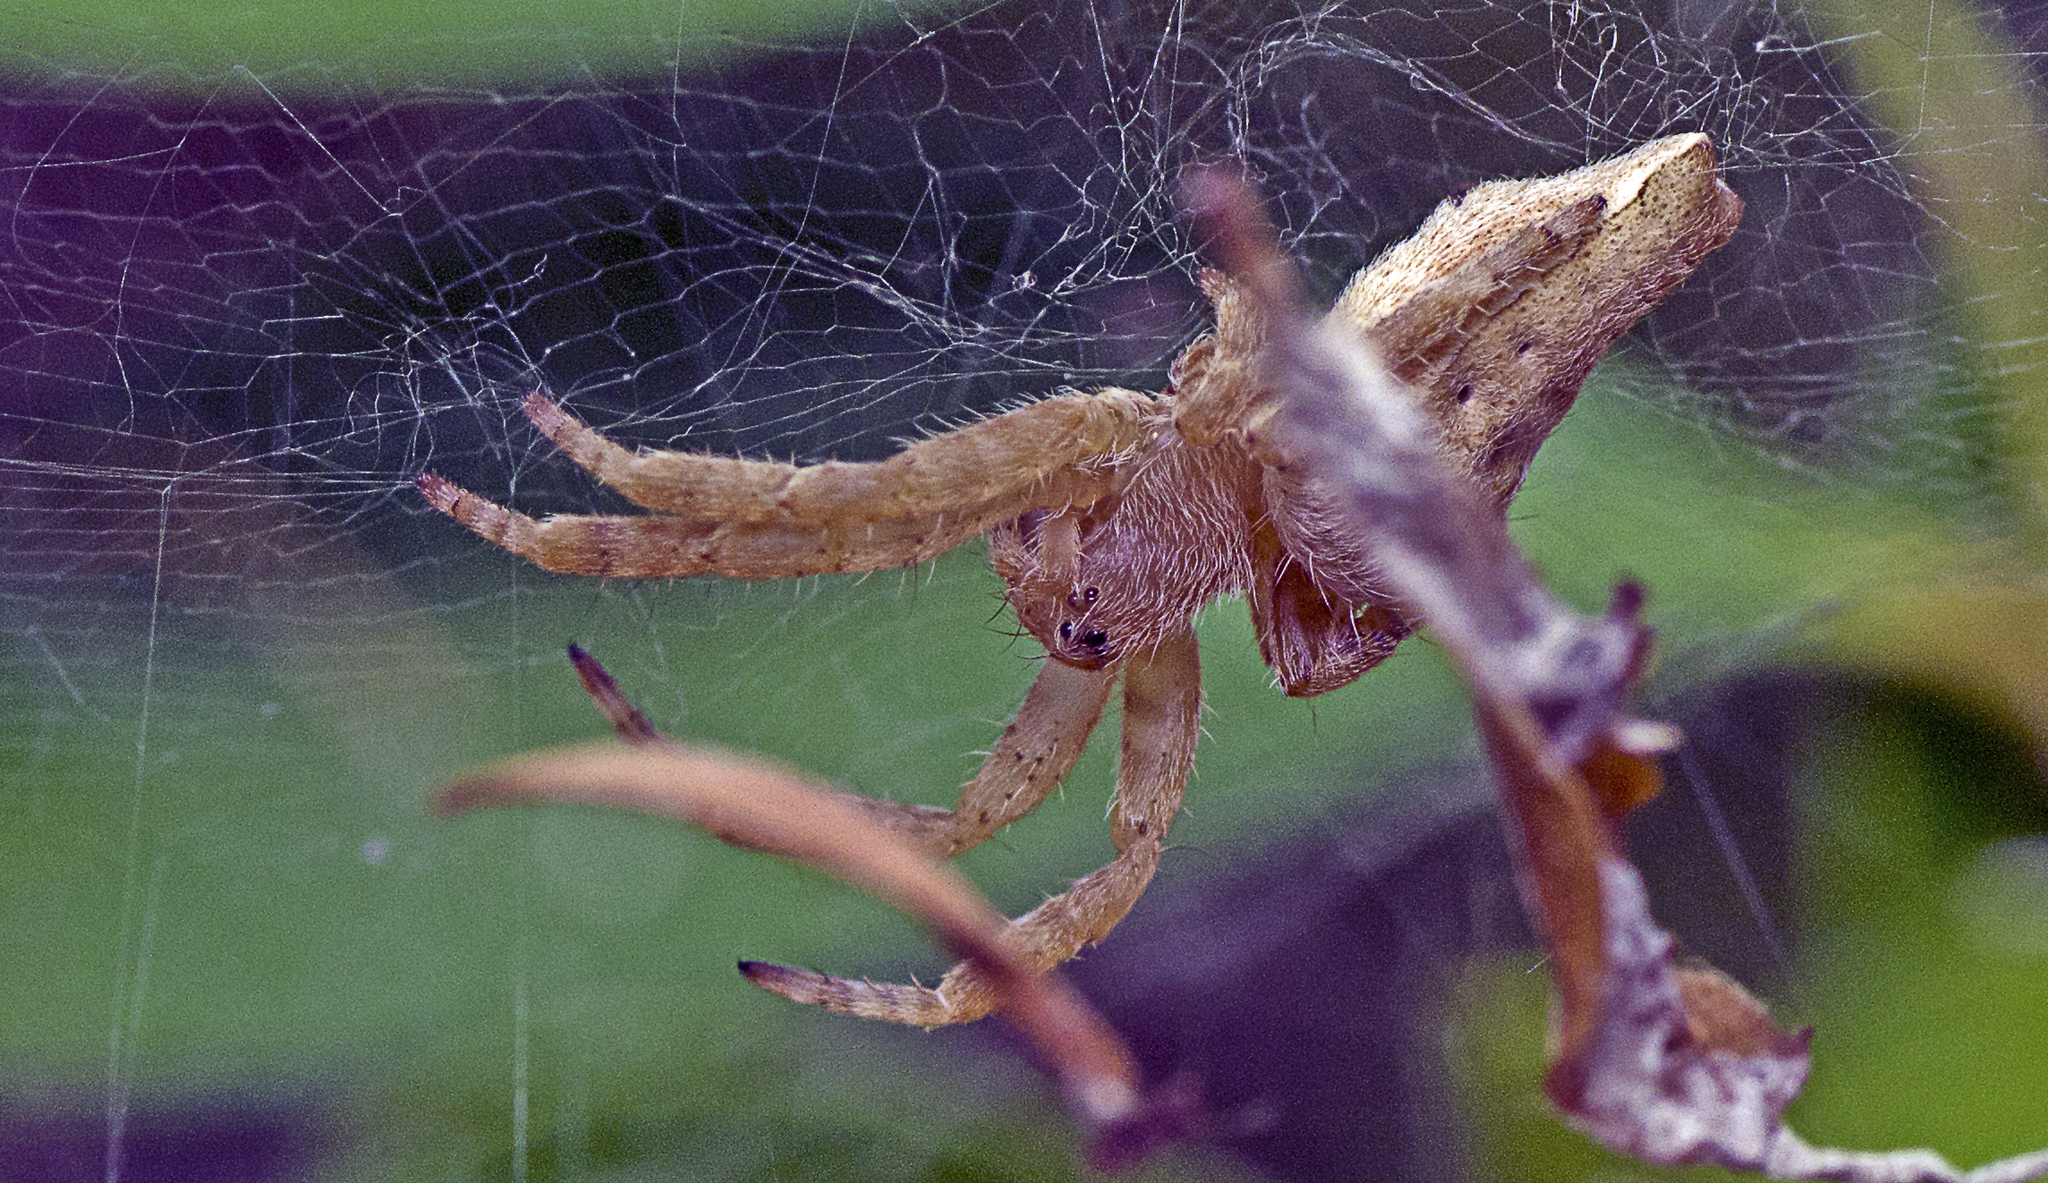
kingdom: Animalia
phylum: Arthropoda
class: Arachnida
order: Araneae
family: Araneidae
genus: Cyrtophora
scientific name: Cyrtophora exanthematica
